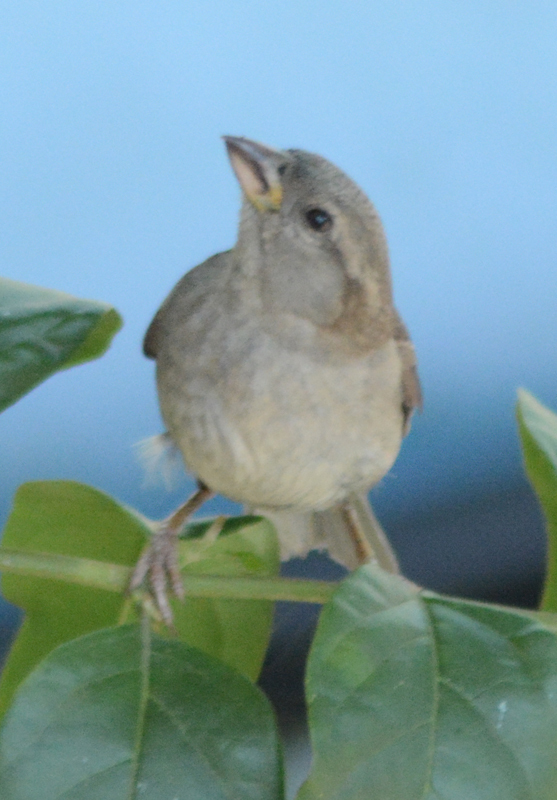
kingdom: Animalia
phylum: Chordata
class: Aves
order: Passeriformes
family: Passeridae
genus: Passer
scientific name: Passer domesticus
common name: House sparrow
